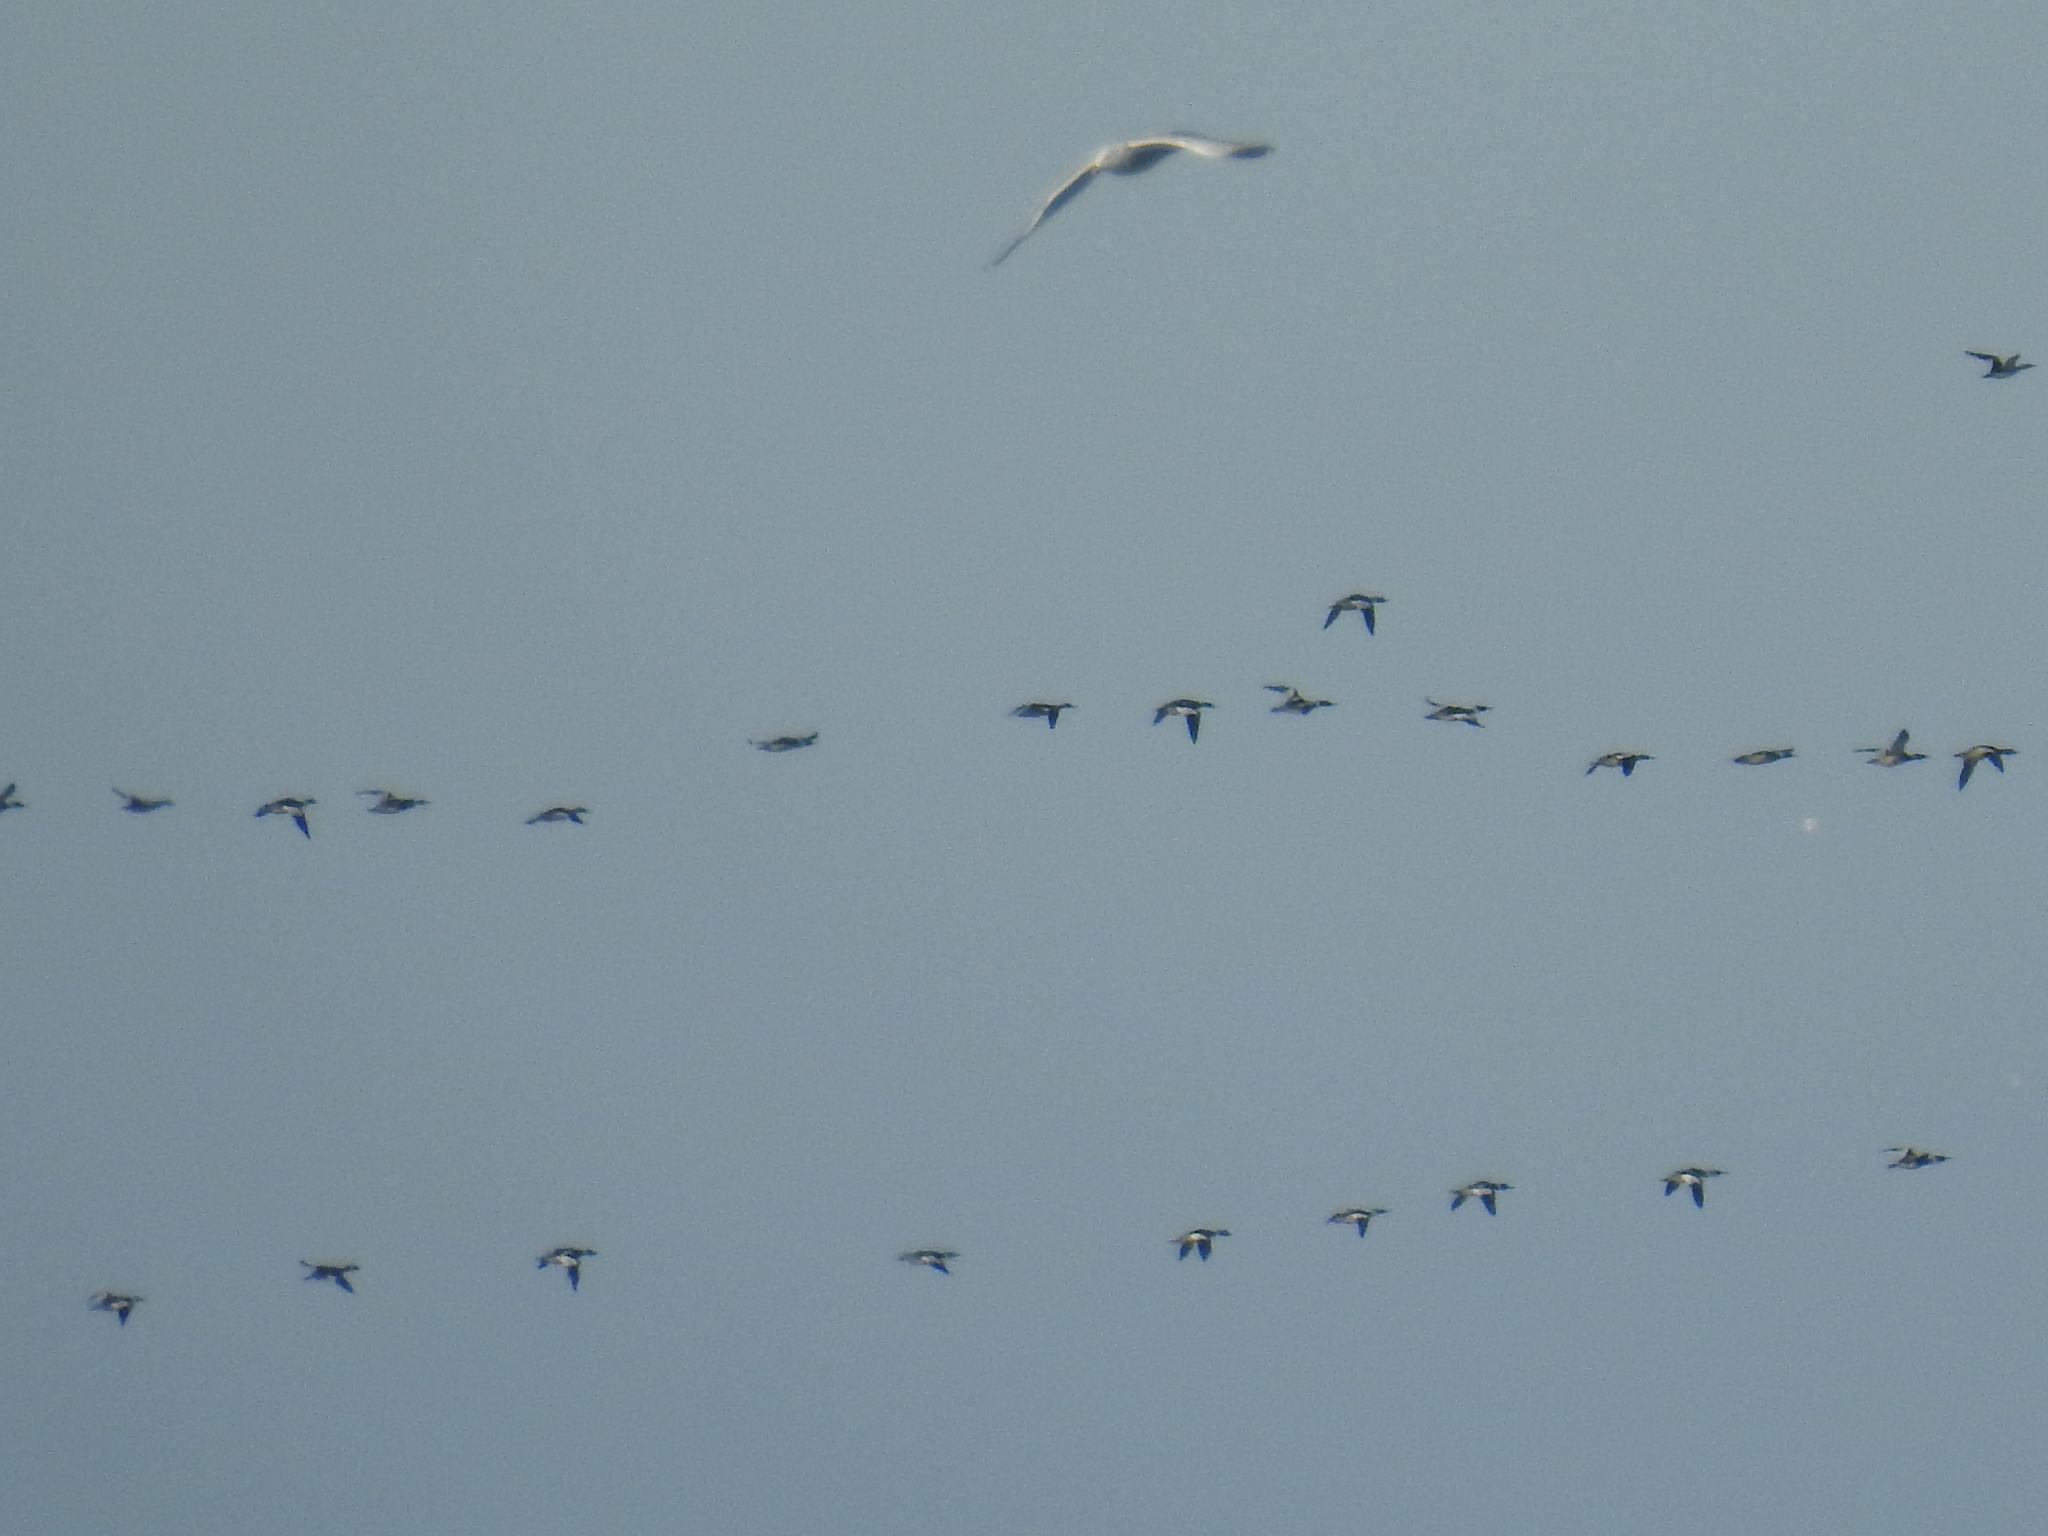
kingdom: Animalia
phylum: Chordata
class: Aves
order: Anseriformes
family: Anatidae
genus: Mergus
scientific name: Mergus serrator
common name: Red-breasted merganser
